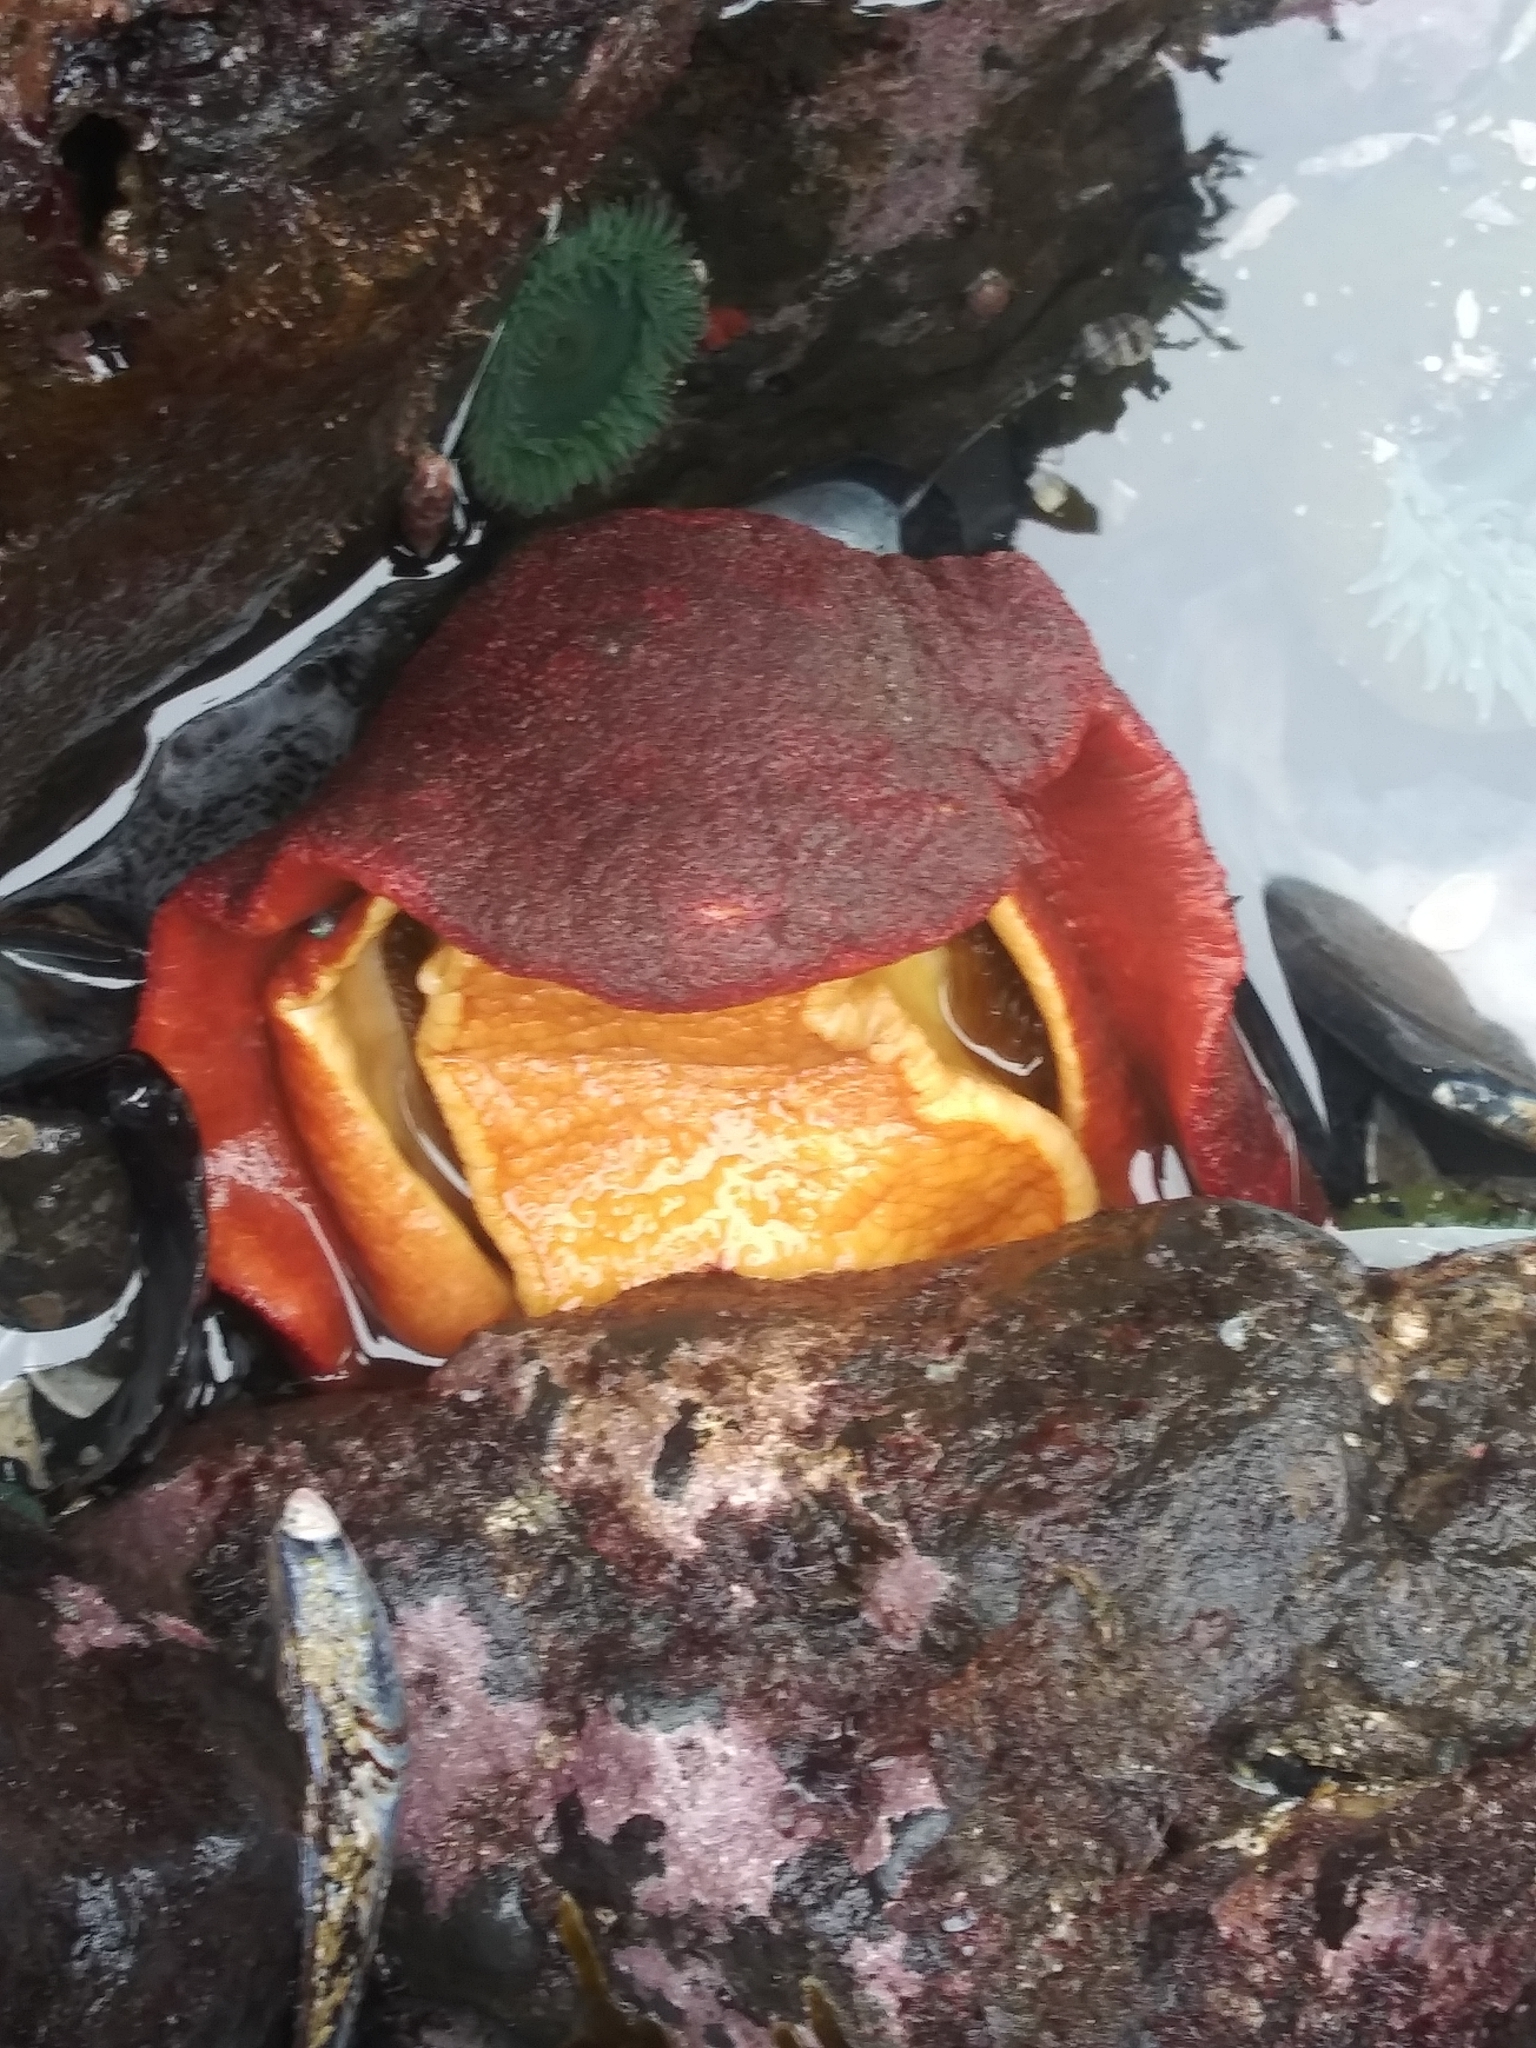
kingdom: Animalia
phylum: Mollusca
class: Polyplacophora
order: Chitonida
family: Acanthochitonidae
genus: Cryptochiton
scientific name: Cryptochiton stelleri
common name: Giant pacific chiton
